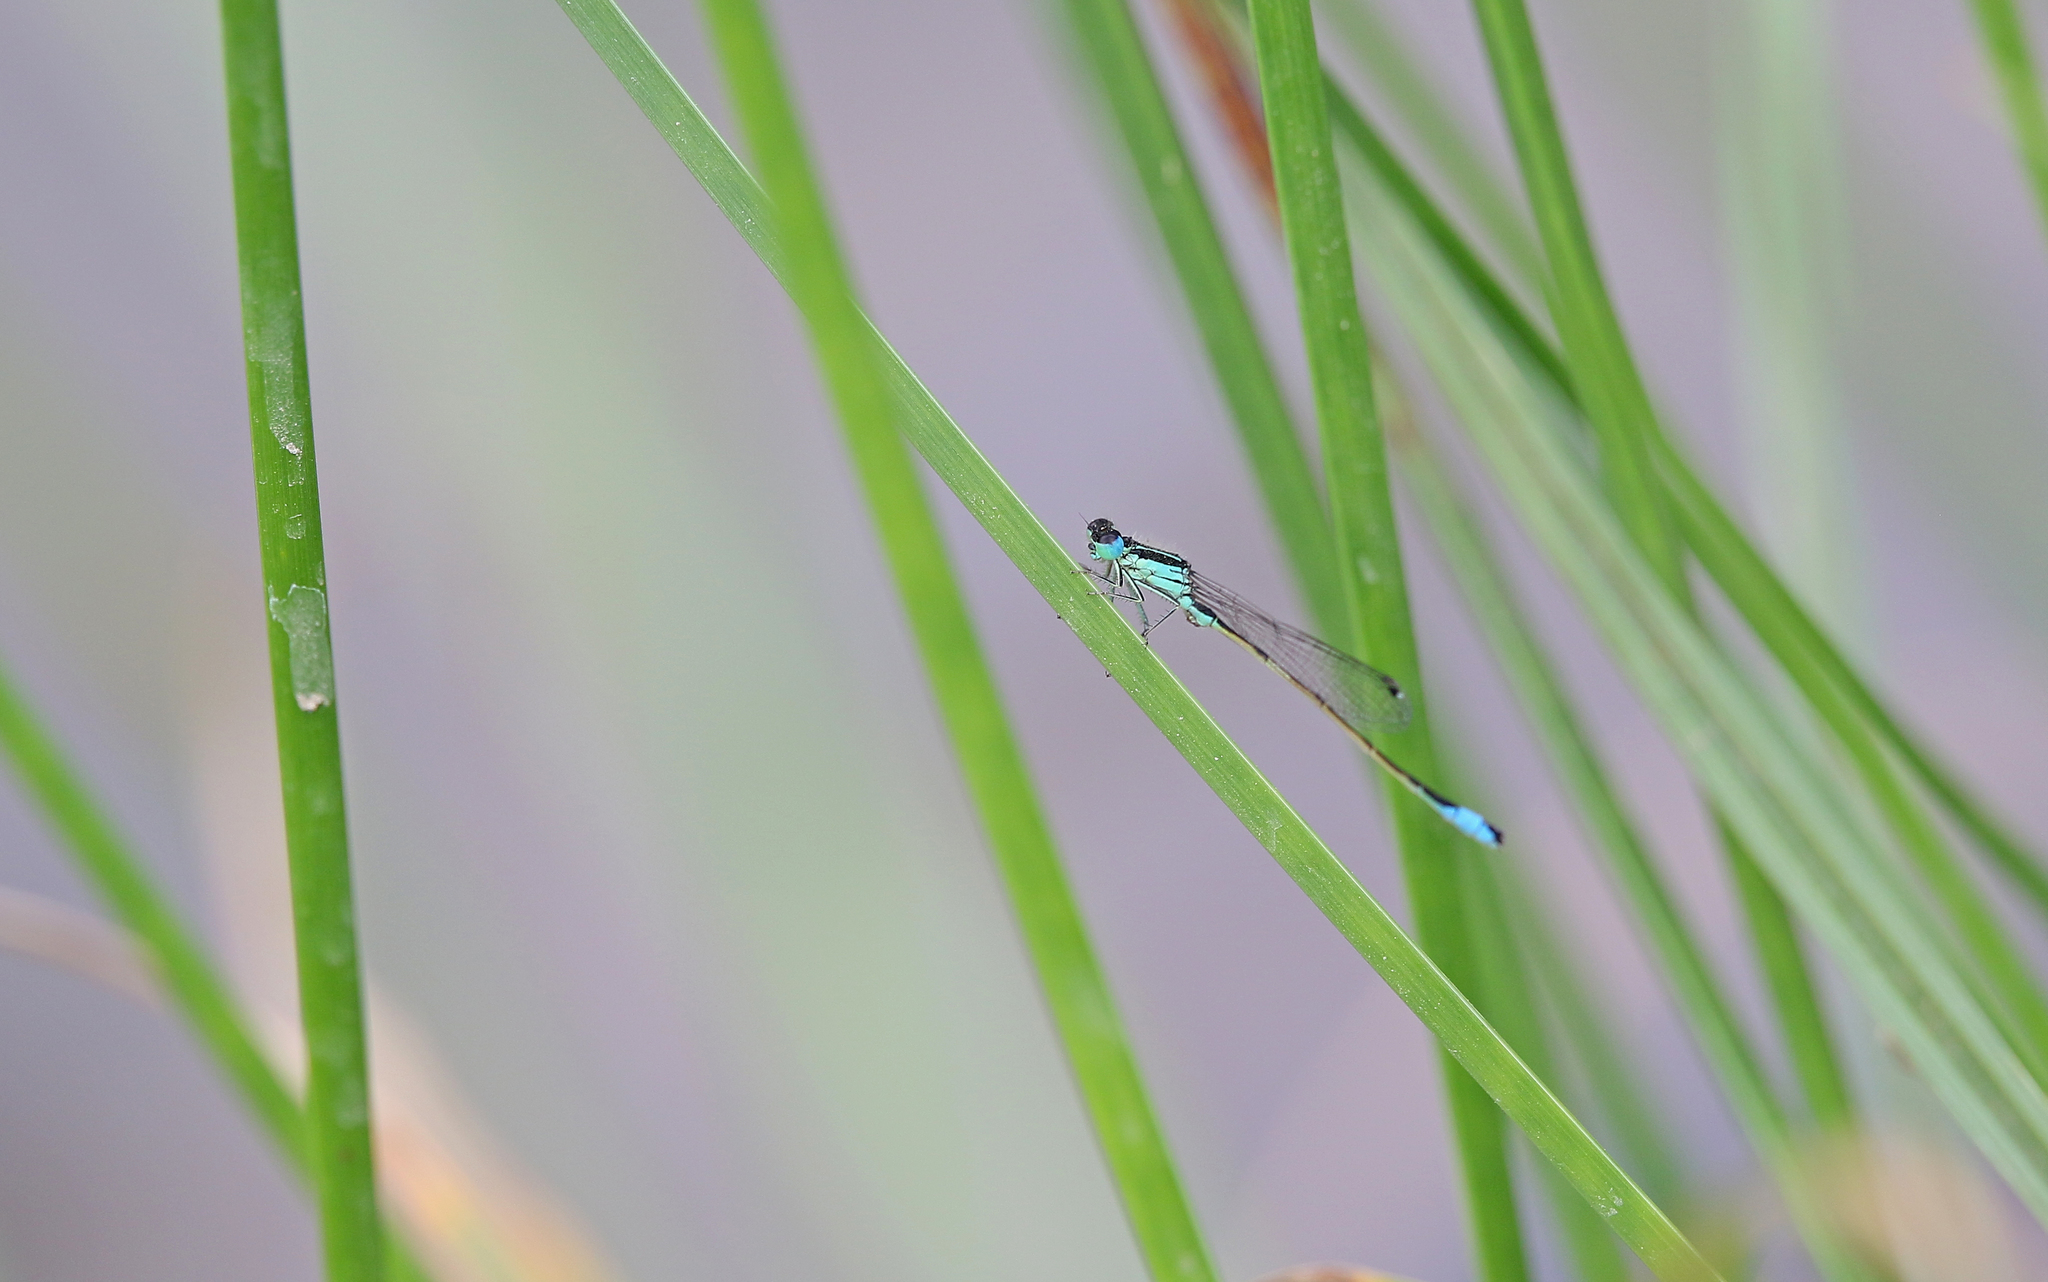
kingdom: Animalia
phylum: Arthropoda
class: Insecta
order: Odonata
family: Coenagrionidae
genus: Ischnura
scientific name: Ischnura graellsii
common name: Iberian bluetail
